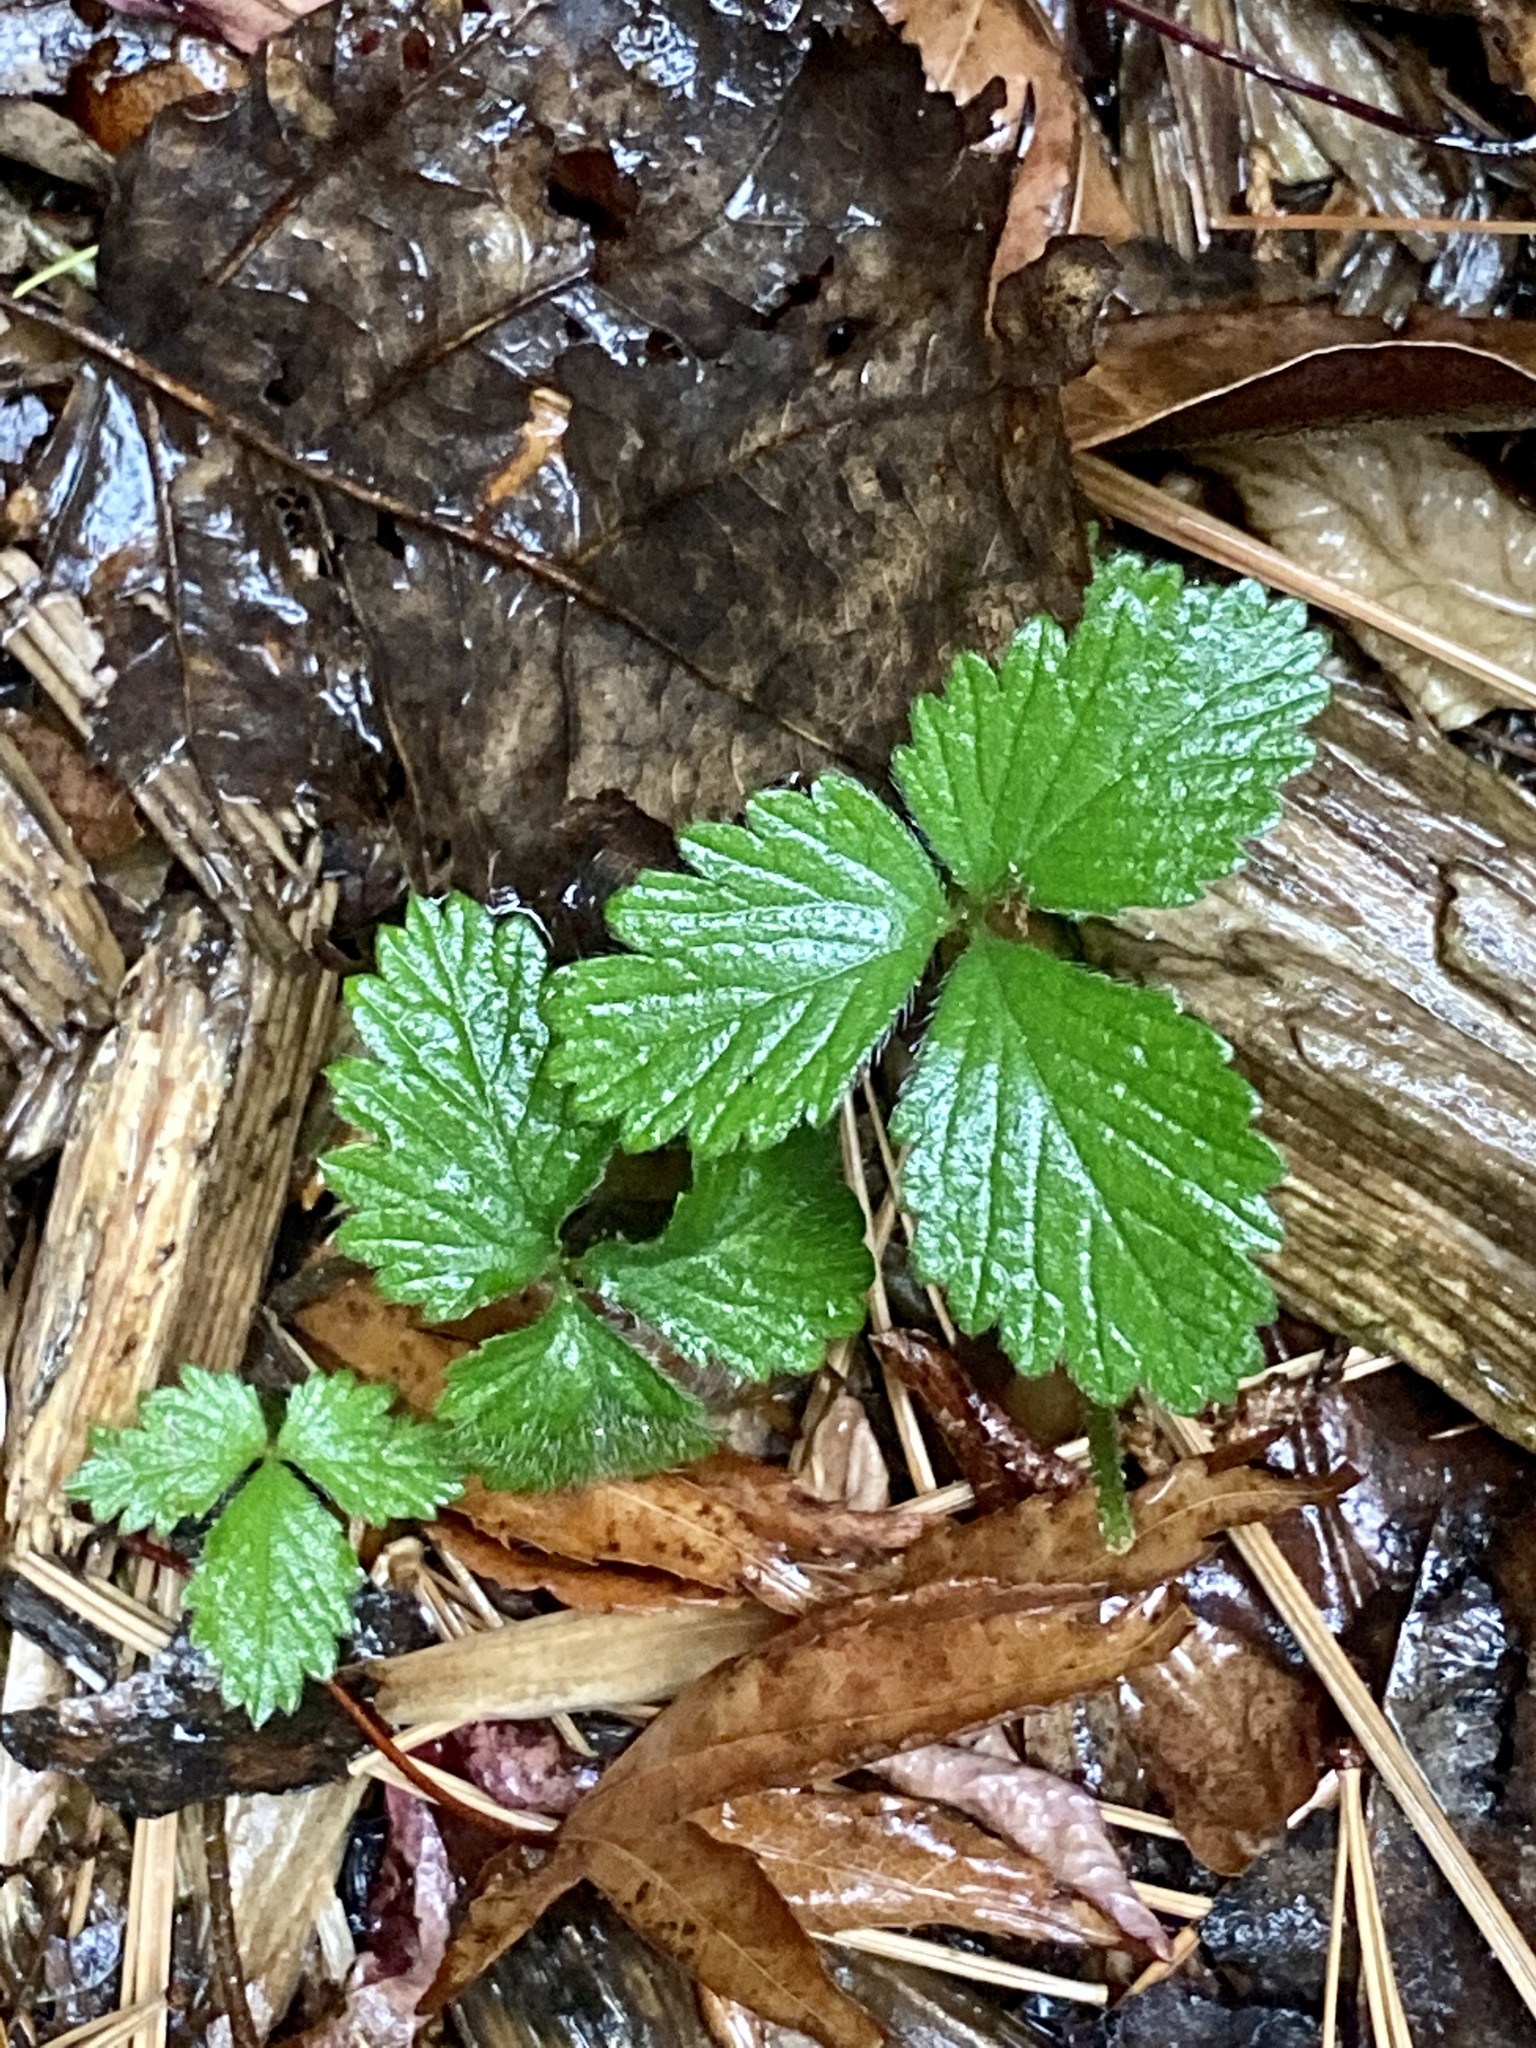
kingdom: Plantae
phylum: Tracheophyta
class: Magnoliopsida
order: Rosales
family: Rosaceae
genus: Potentilla
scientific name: Potentilla indica
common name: Yellow-flowered strawberry
